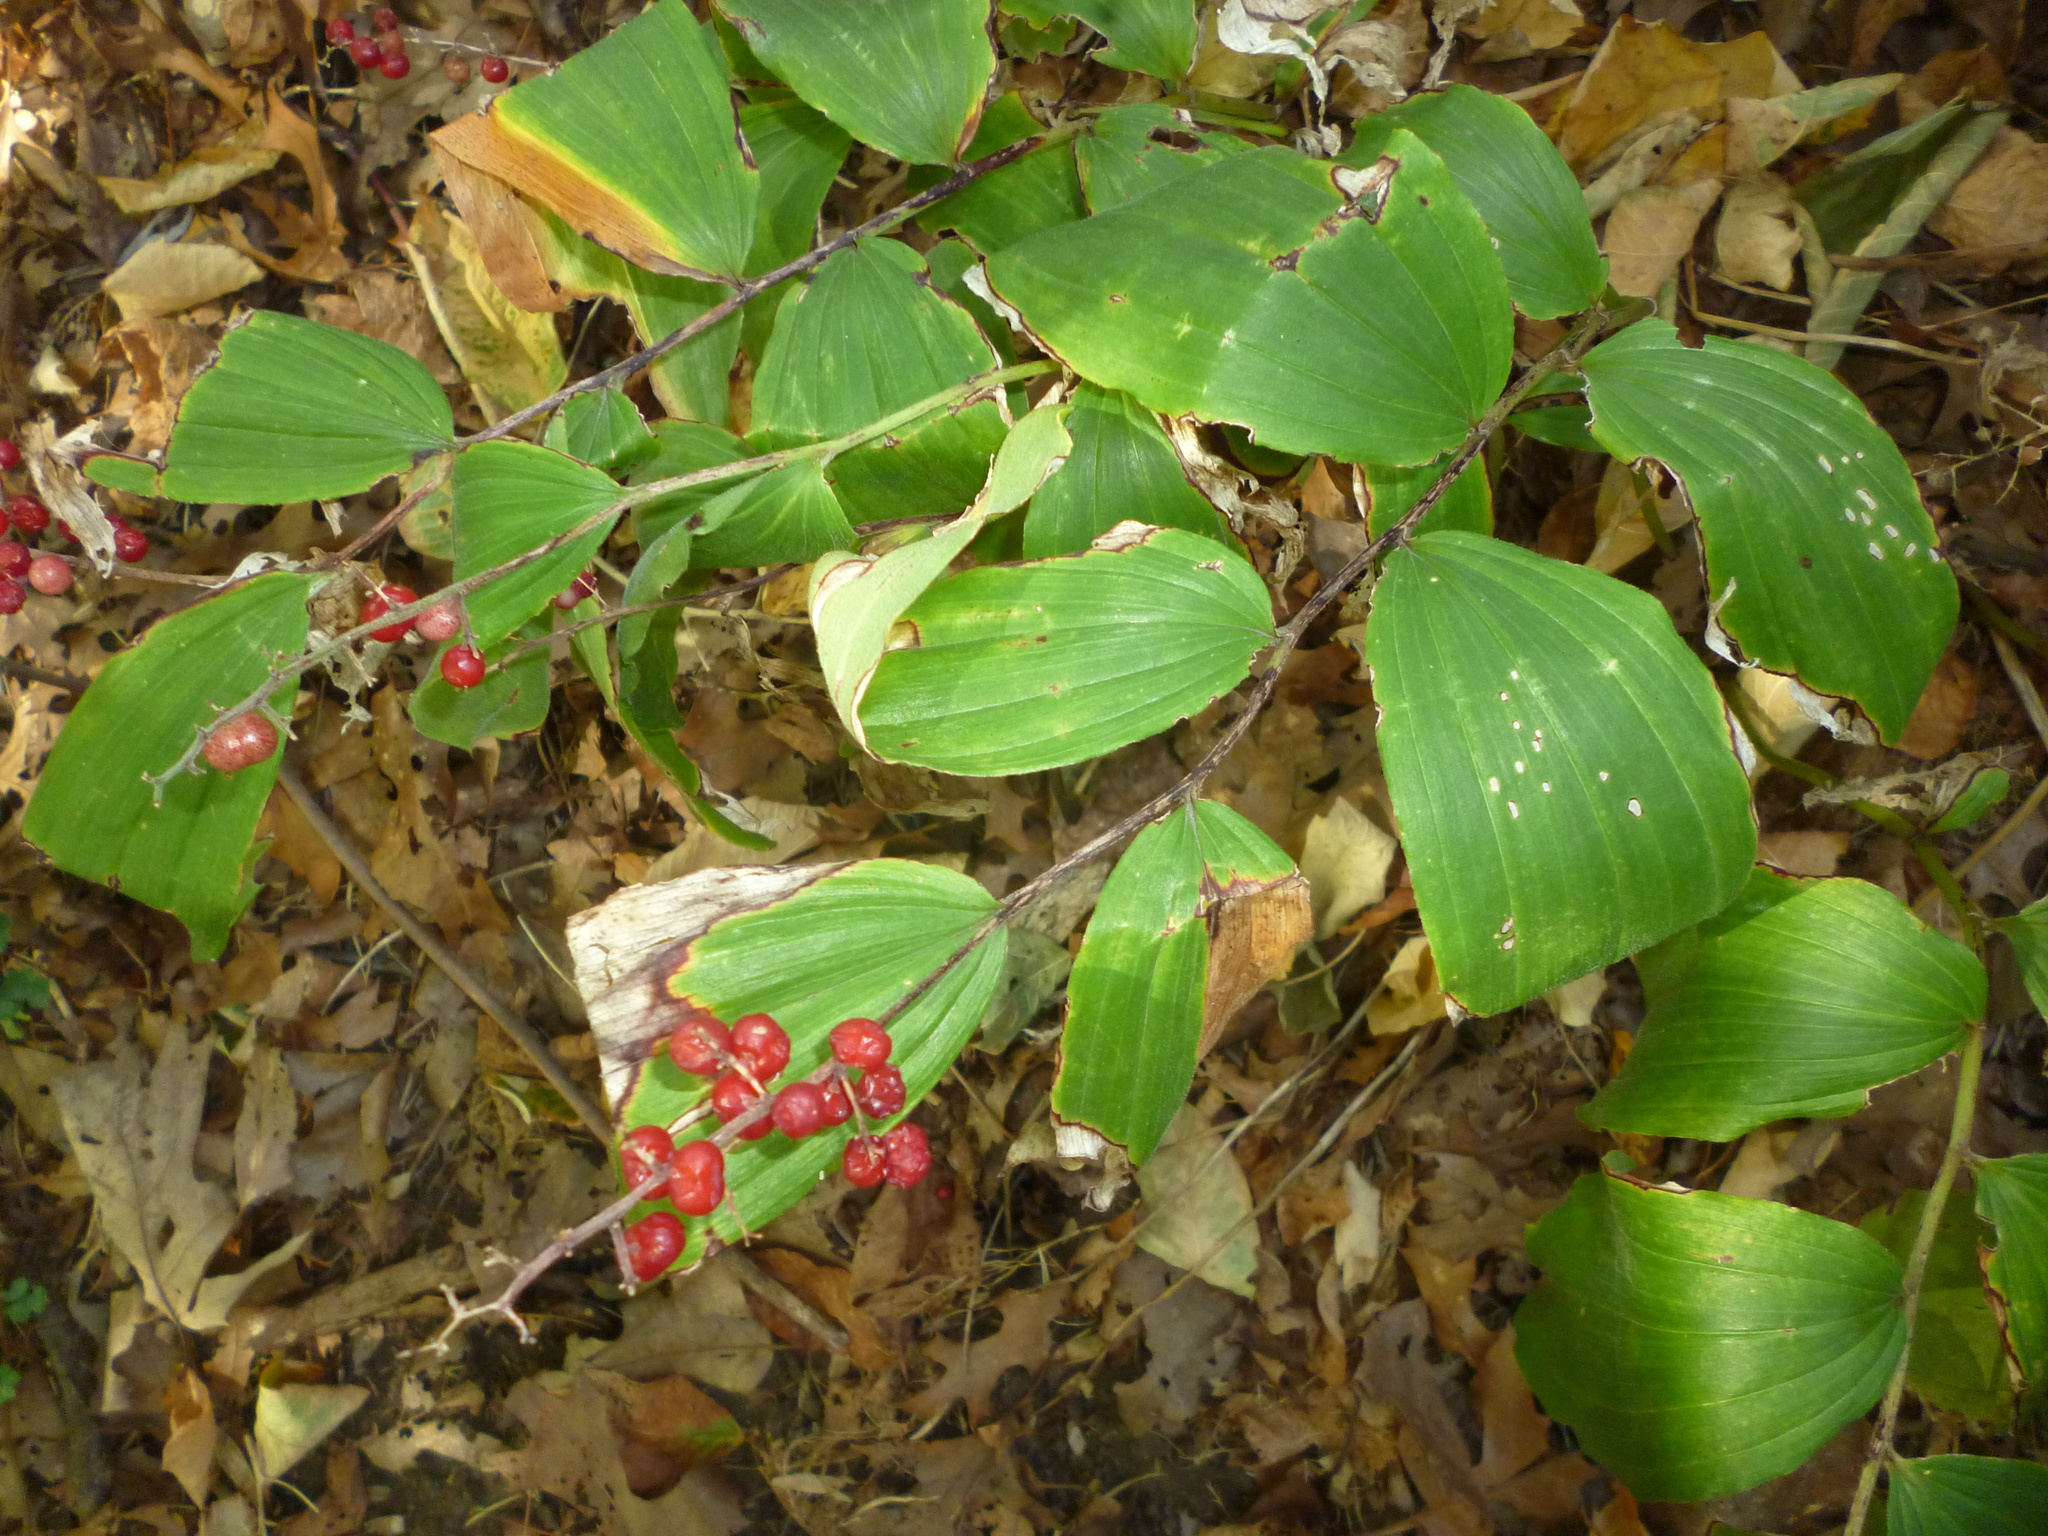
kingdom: Plantae
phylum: Tracheophyta
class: Liliopsida
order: Asparagales
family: Asparagaceae
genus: Maianthemum
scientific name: Maianthemum racemosum
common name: False spikenard
